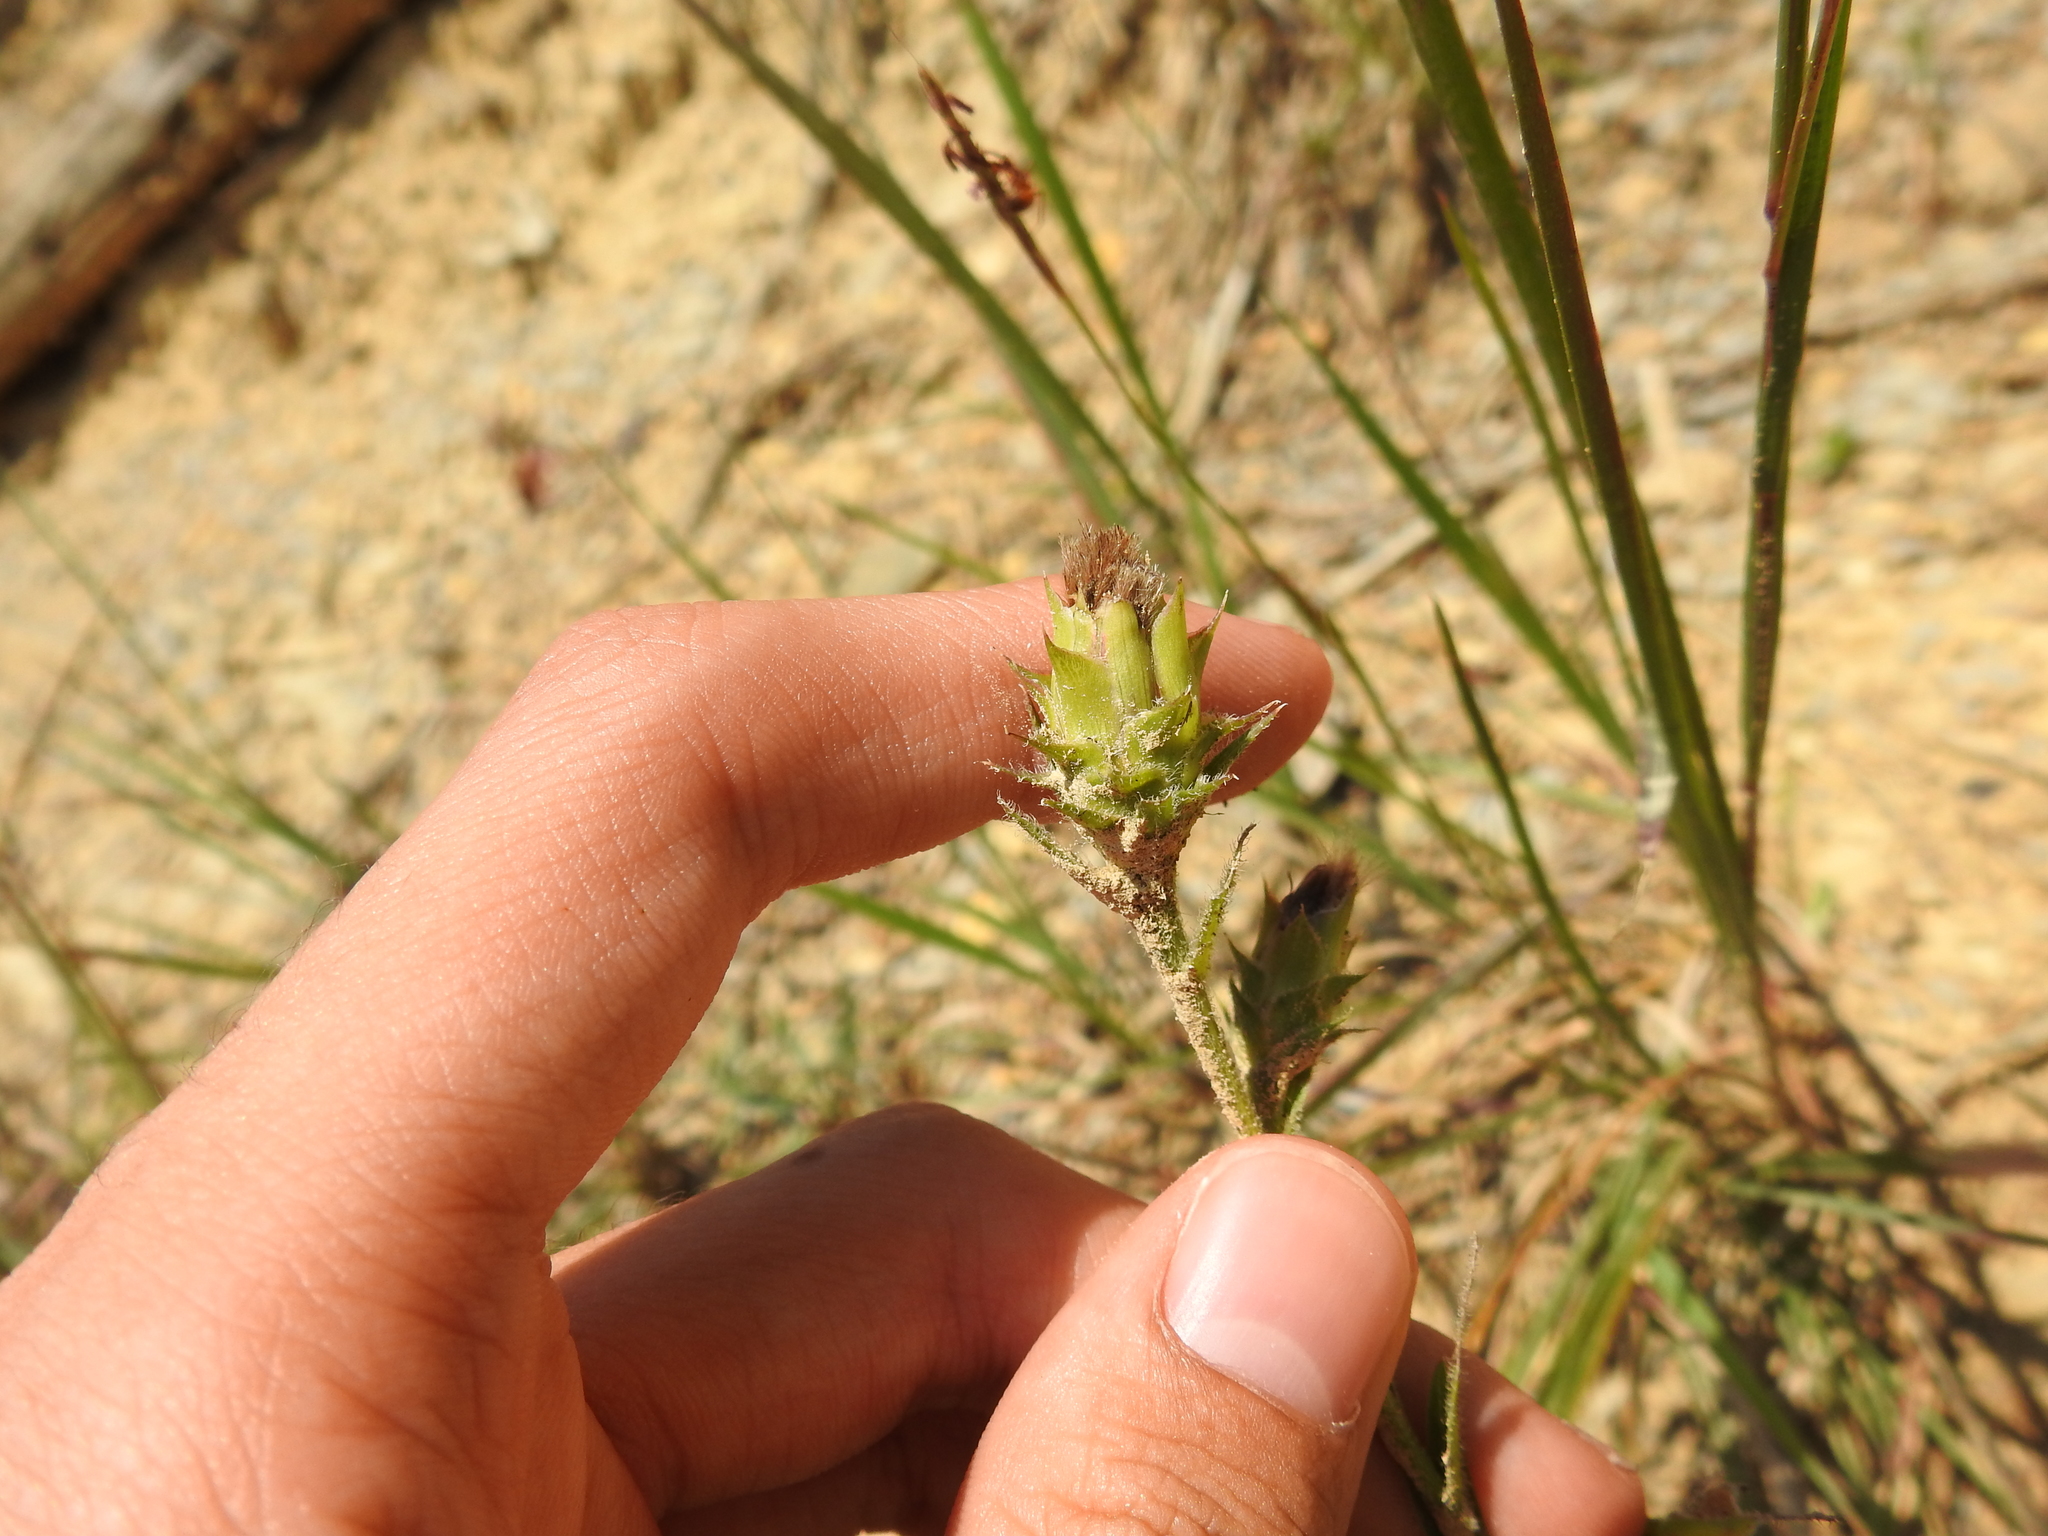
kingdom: Plantae
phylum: Tracheophyta
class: Magnoliopsida
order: Asterales
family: Asteraceae
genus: Liatris
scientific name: Liatris squarrosa
